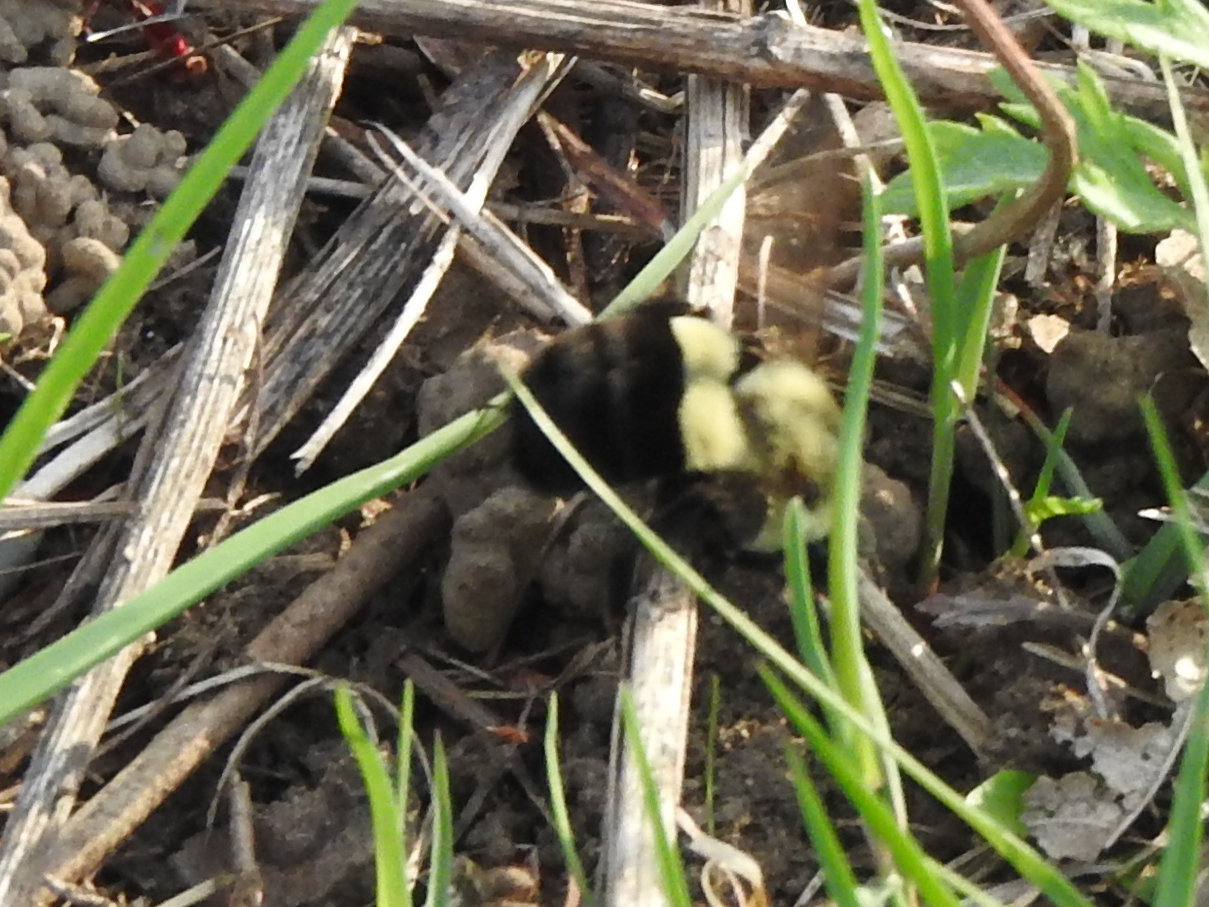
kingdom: Animalia
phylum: Arthropoda
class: Insecta
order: Hymenoptera
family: Apidae
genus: Bombus
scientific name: Bombus impatiens
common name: Common eastern bumble bee
